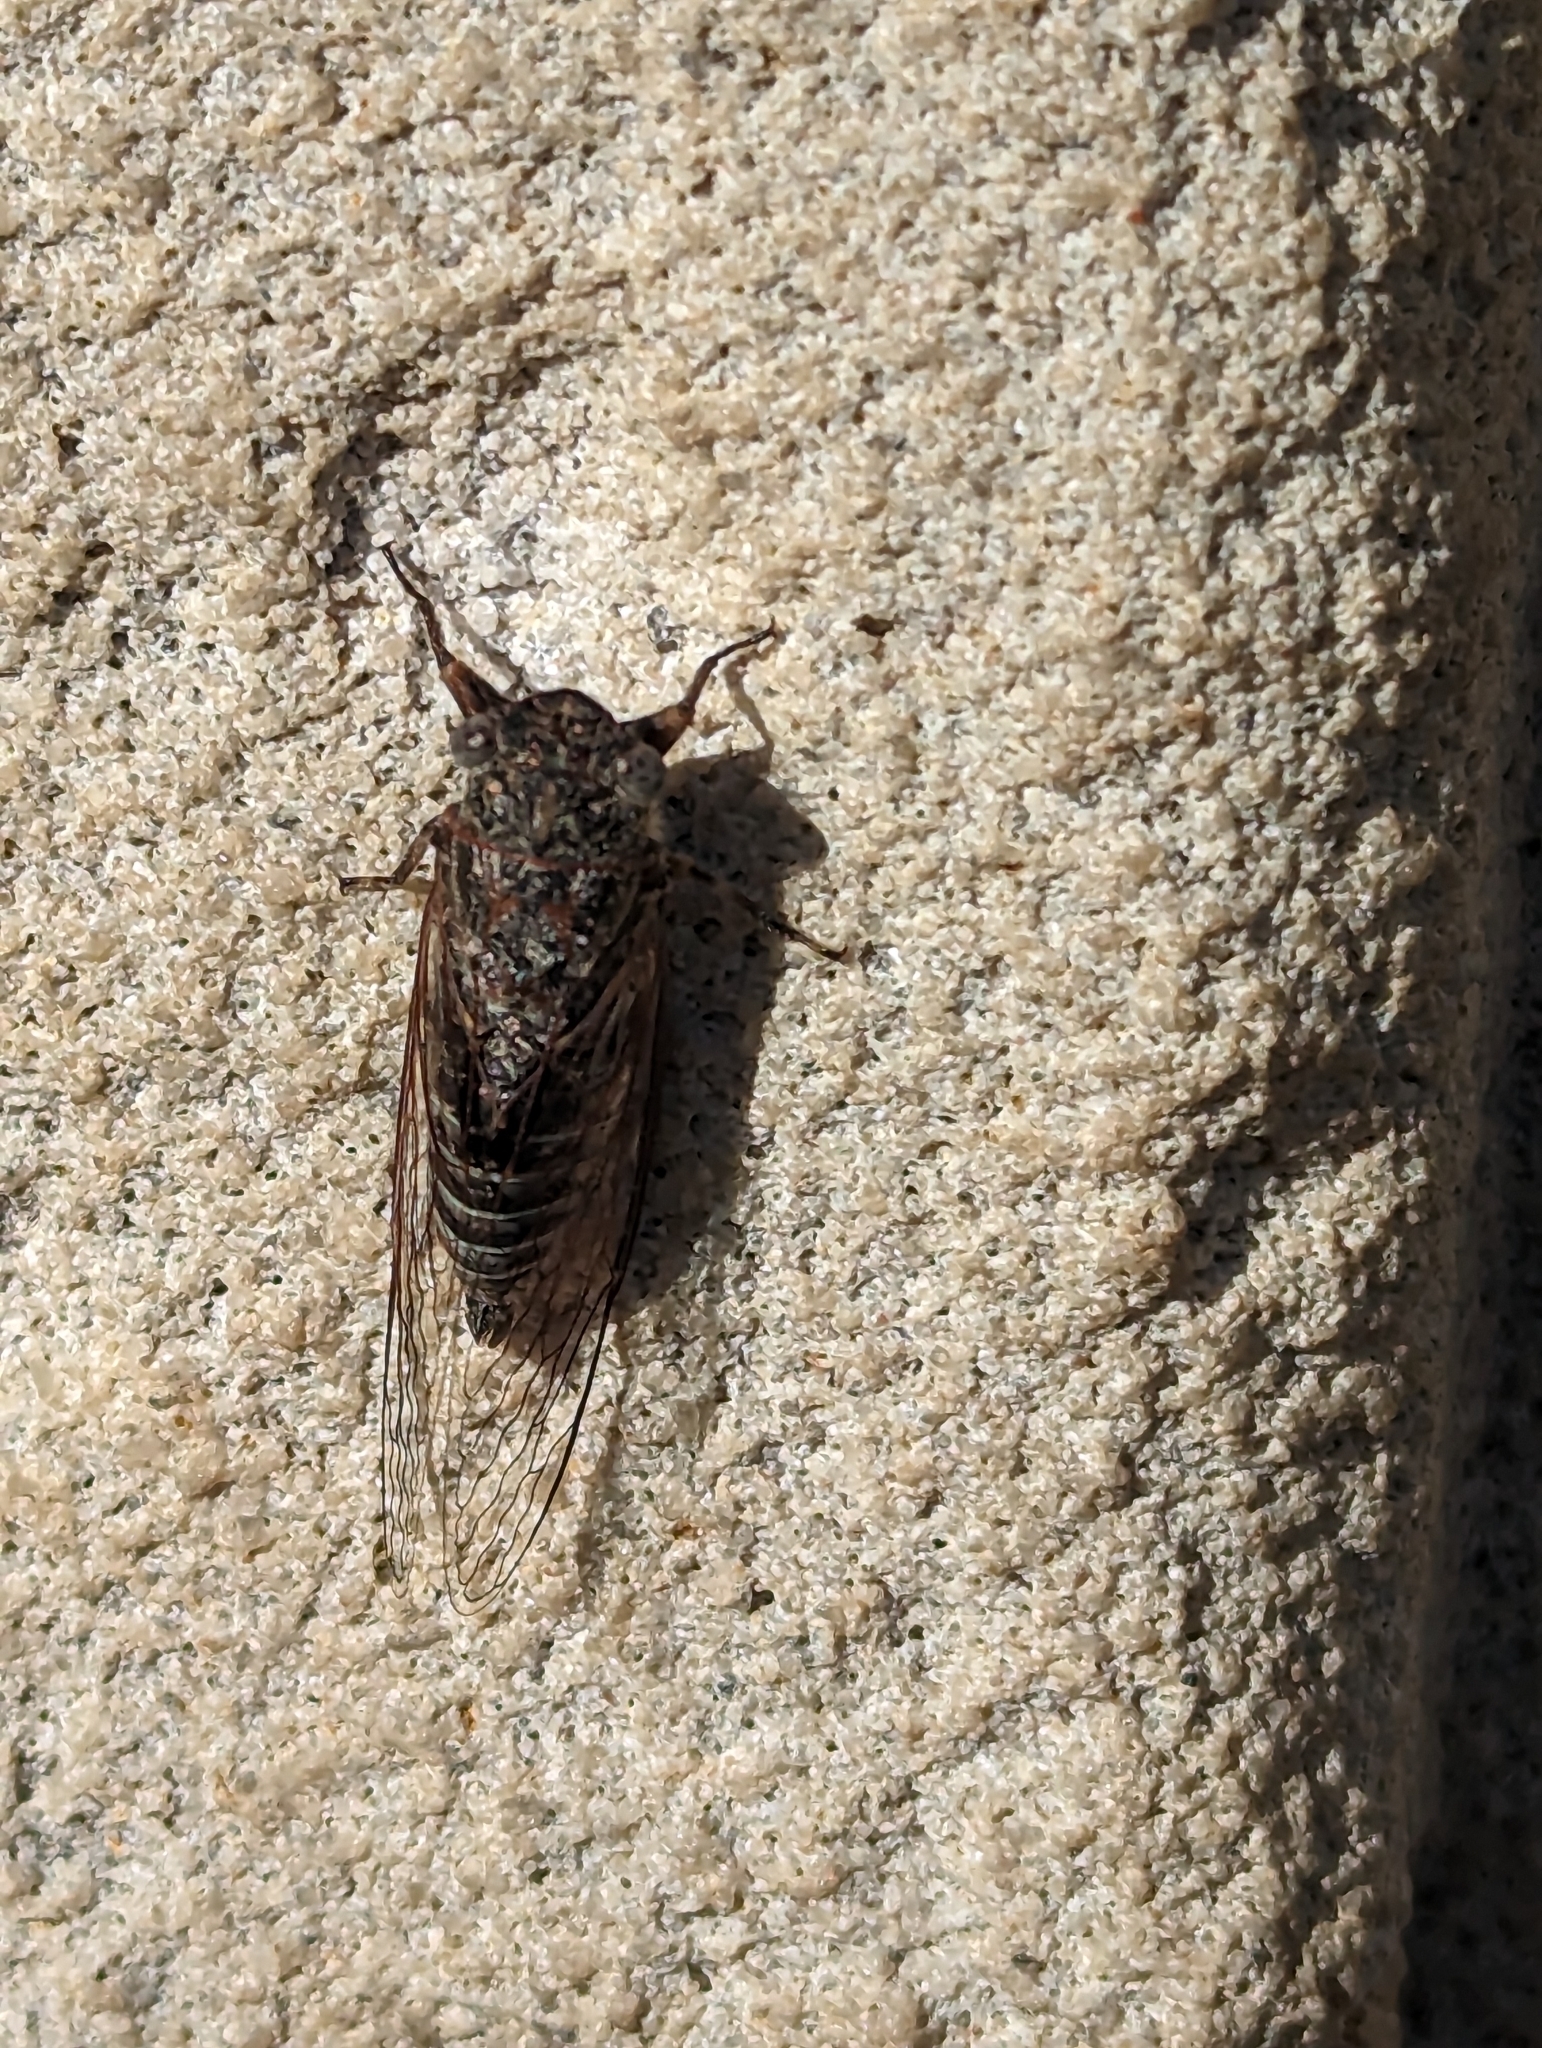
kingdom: Animalia
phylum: Arthropoda
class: Insecta
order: Hemiptera
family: Cicadidae
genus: Atrapsalta
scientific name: Atrapsalta corticina
